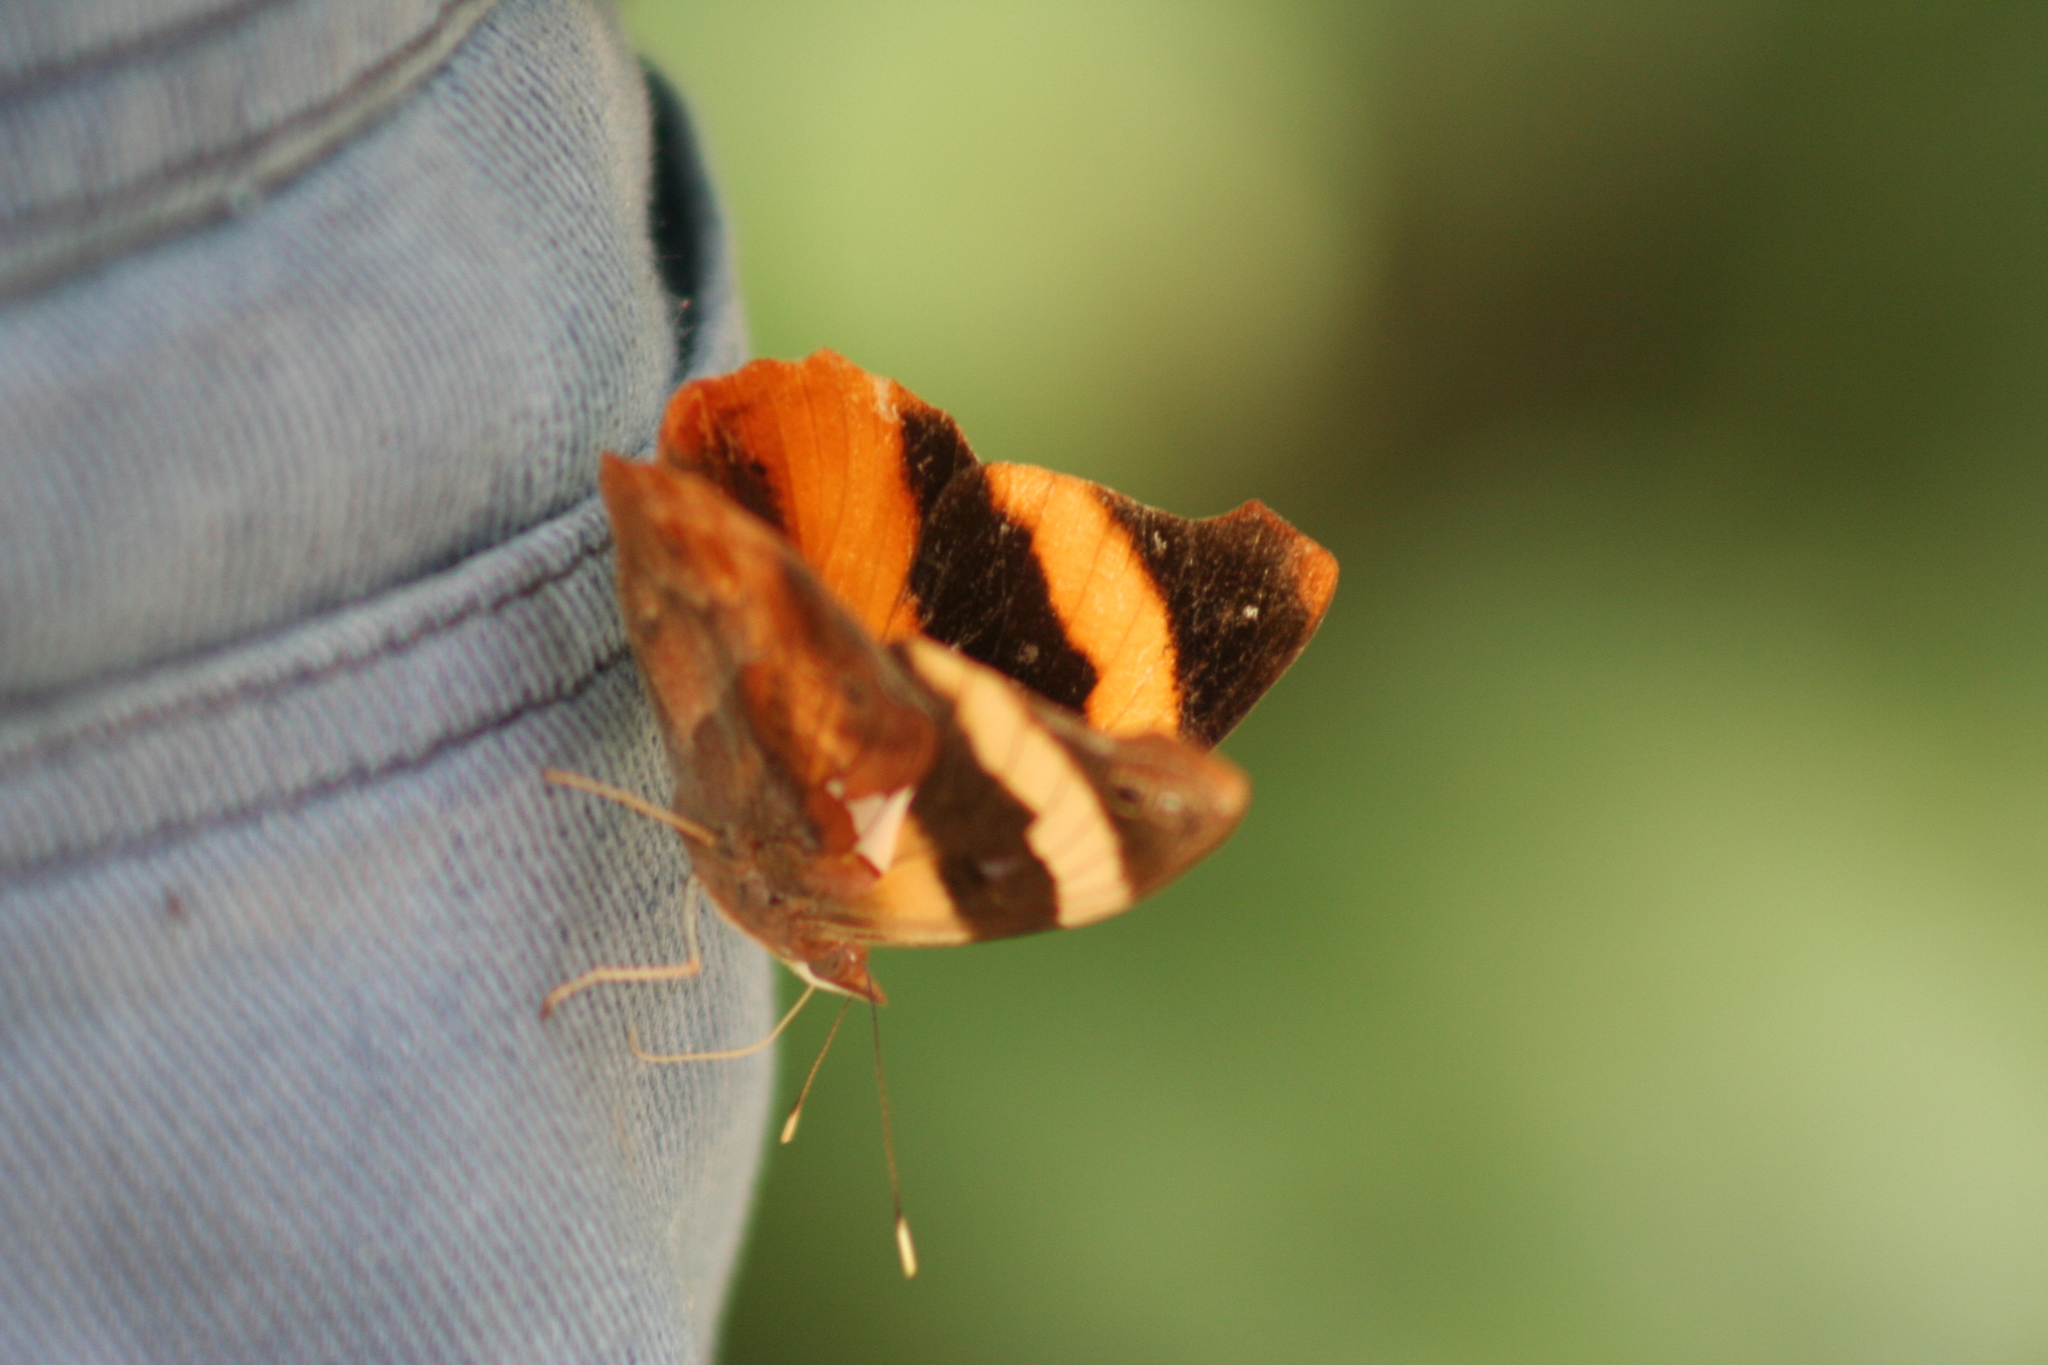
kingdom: Animalia
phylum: Arthropoda
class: Insecta
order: Lepidoptera
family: Nymphalidae
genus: Epiphile
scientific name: Epiphile adrasta
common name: Common banner
